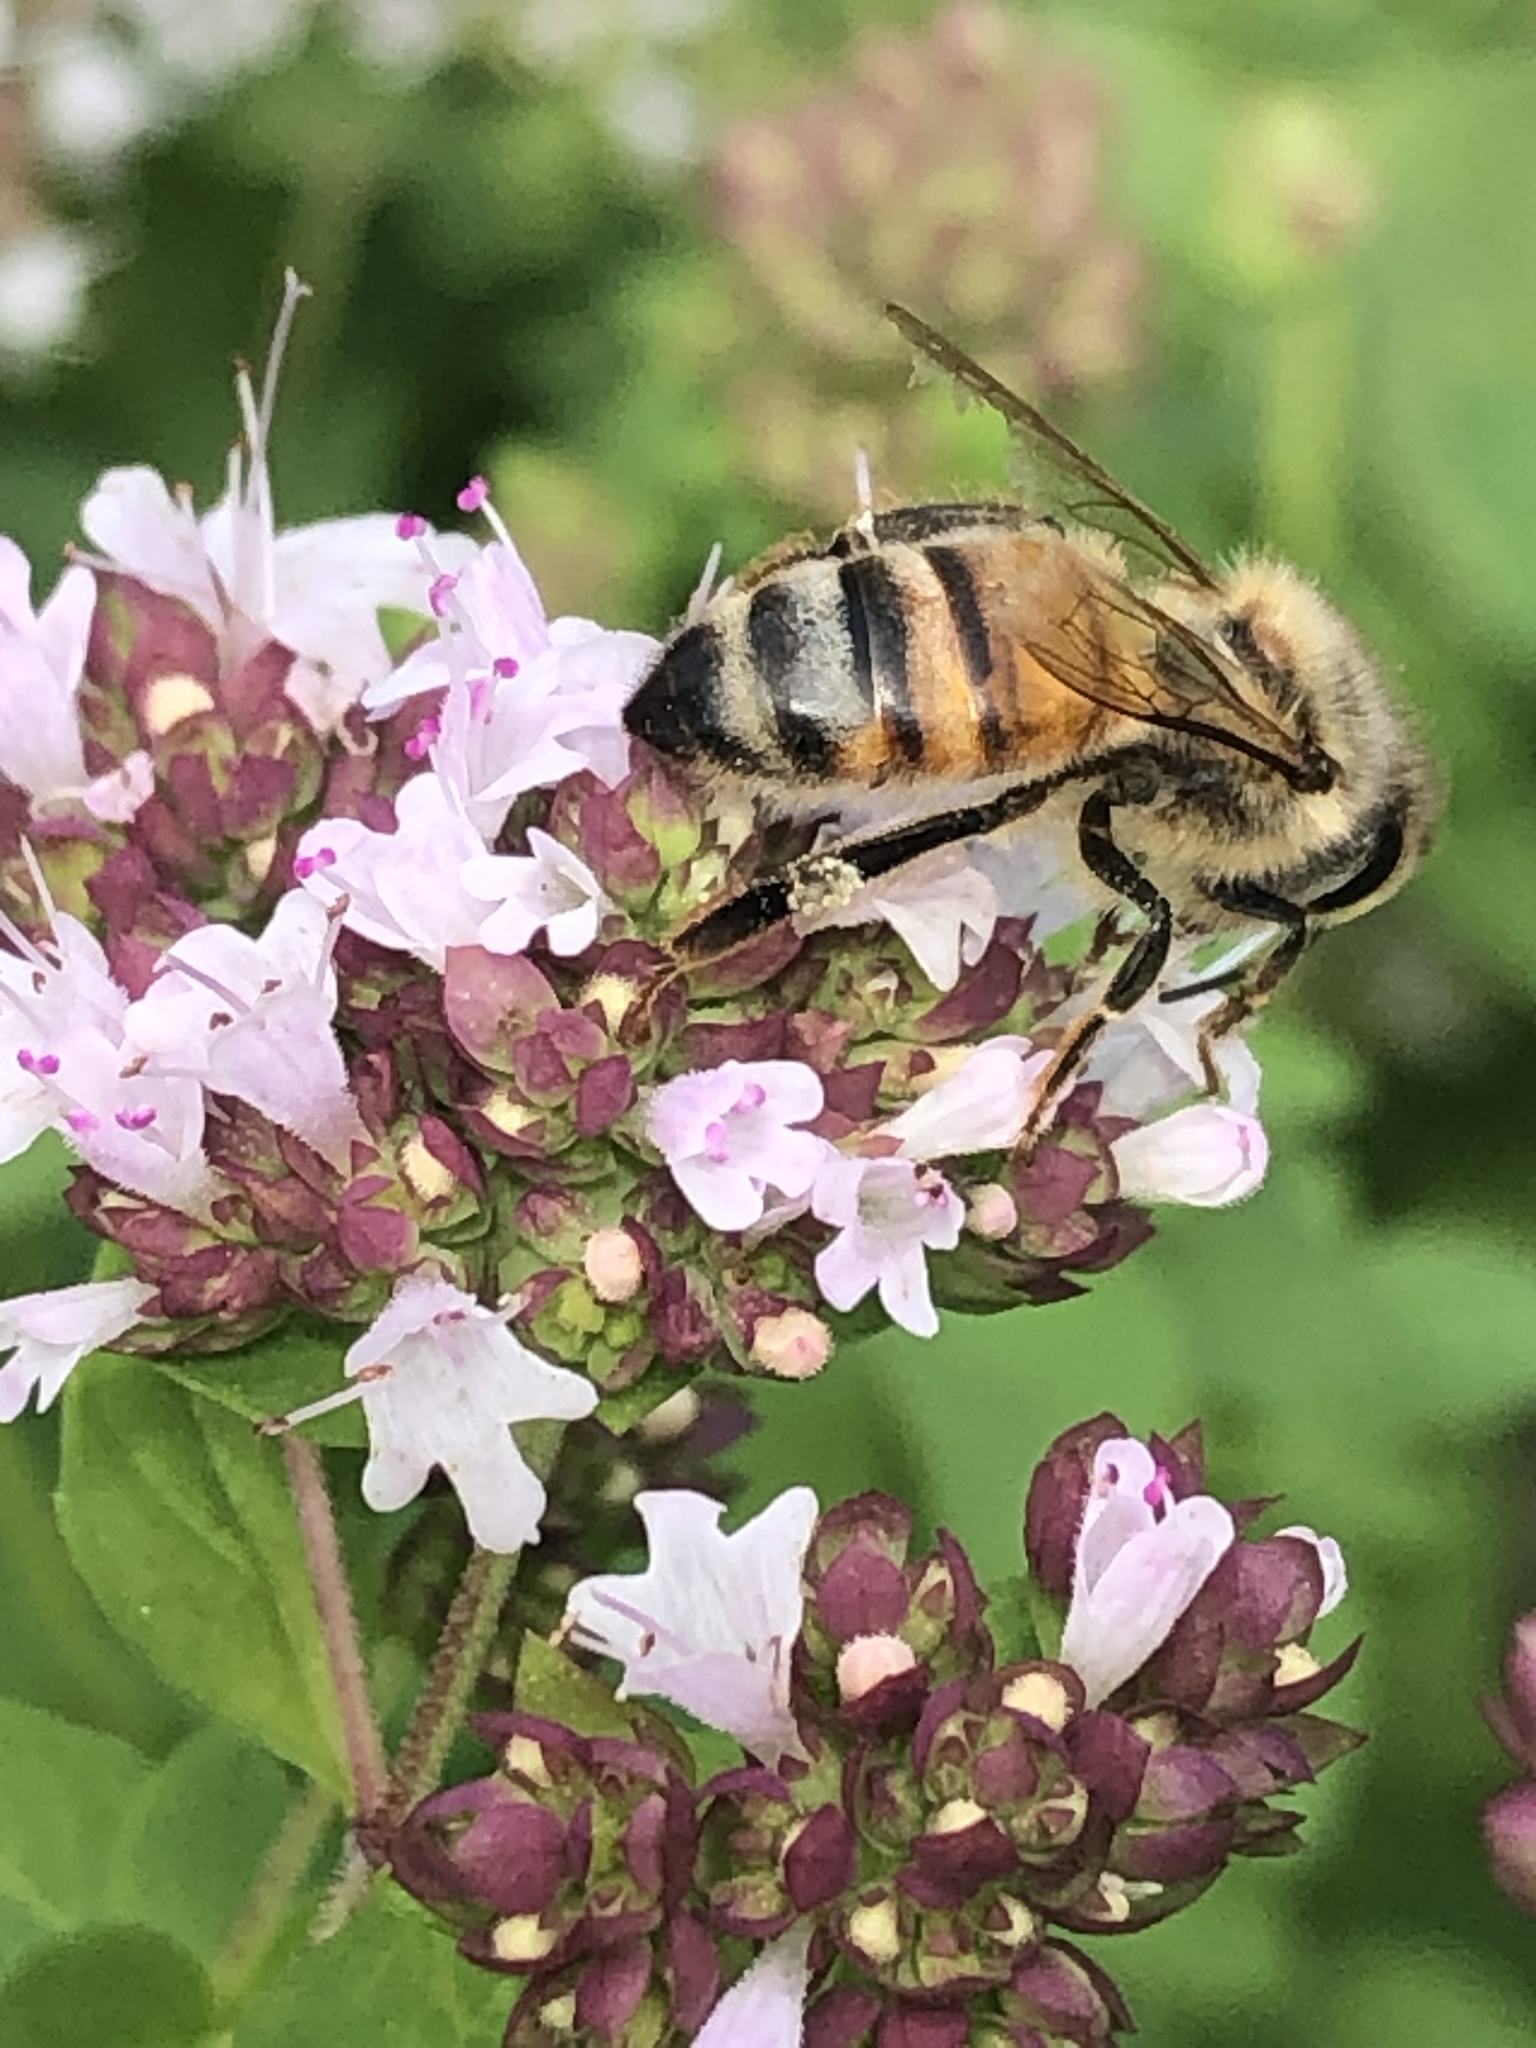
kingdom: Animalia
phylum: Arthropoda
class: Insecta
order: Hymenoptera
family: Apidae
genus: Apis
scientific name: Apis mellifera
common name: Honey bee
